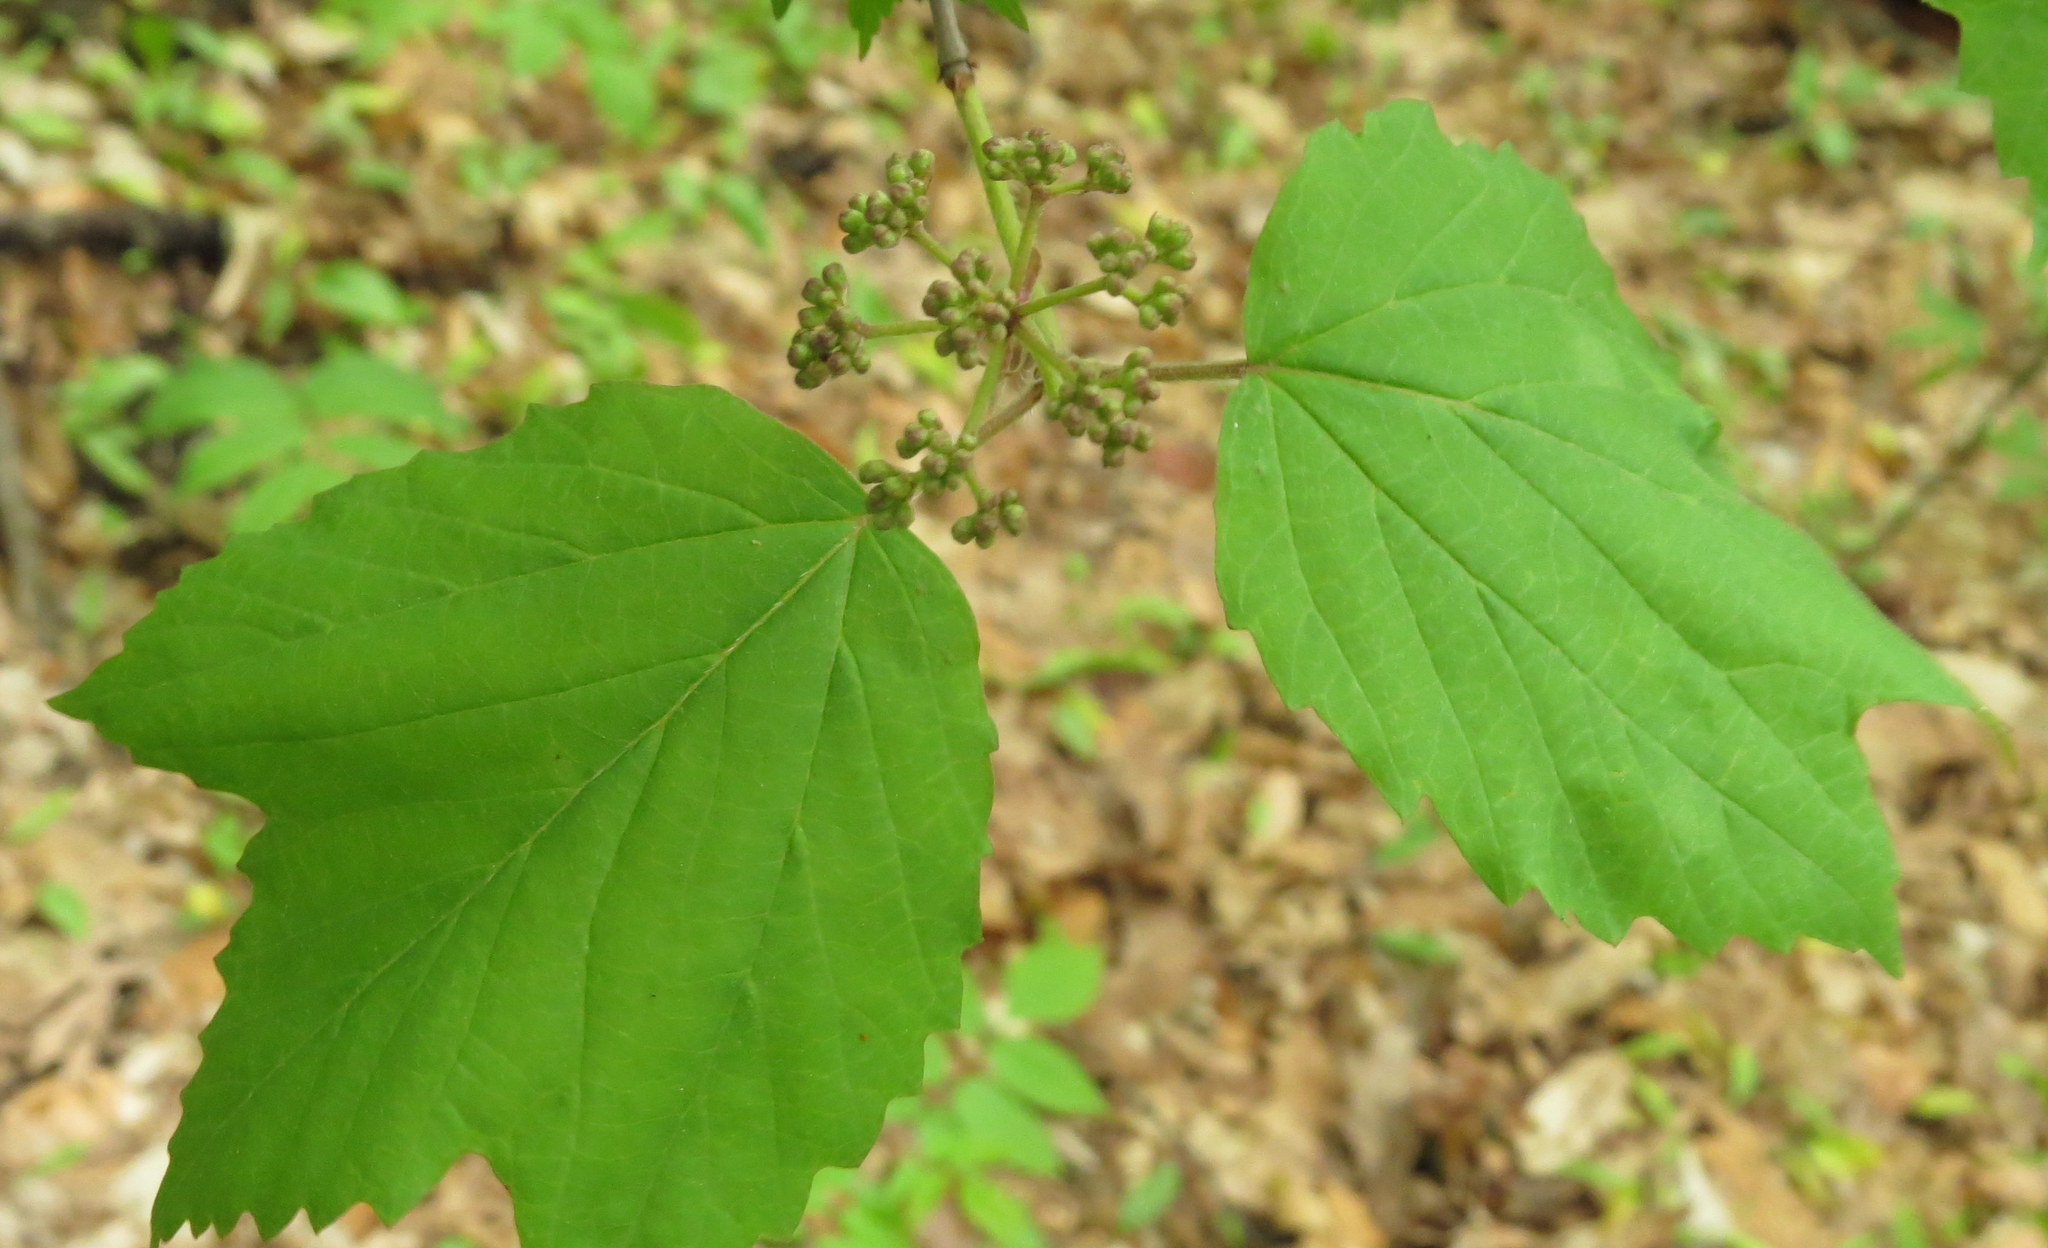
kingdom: Plantae
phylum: Tracheophyta
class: Magnoliopsida
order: Dipsacales
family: Viburnaceae
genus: Viburnum
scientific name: Viburnum acerifolium
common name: Dockmackie
